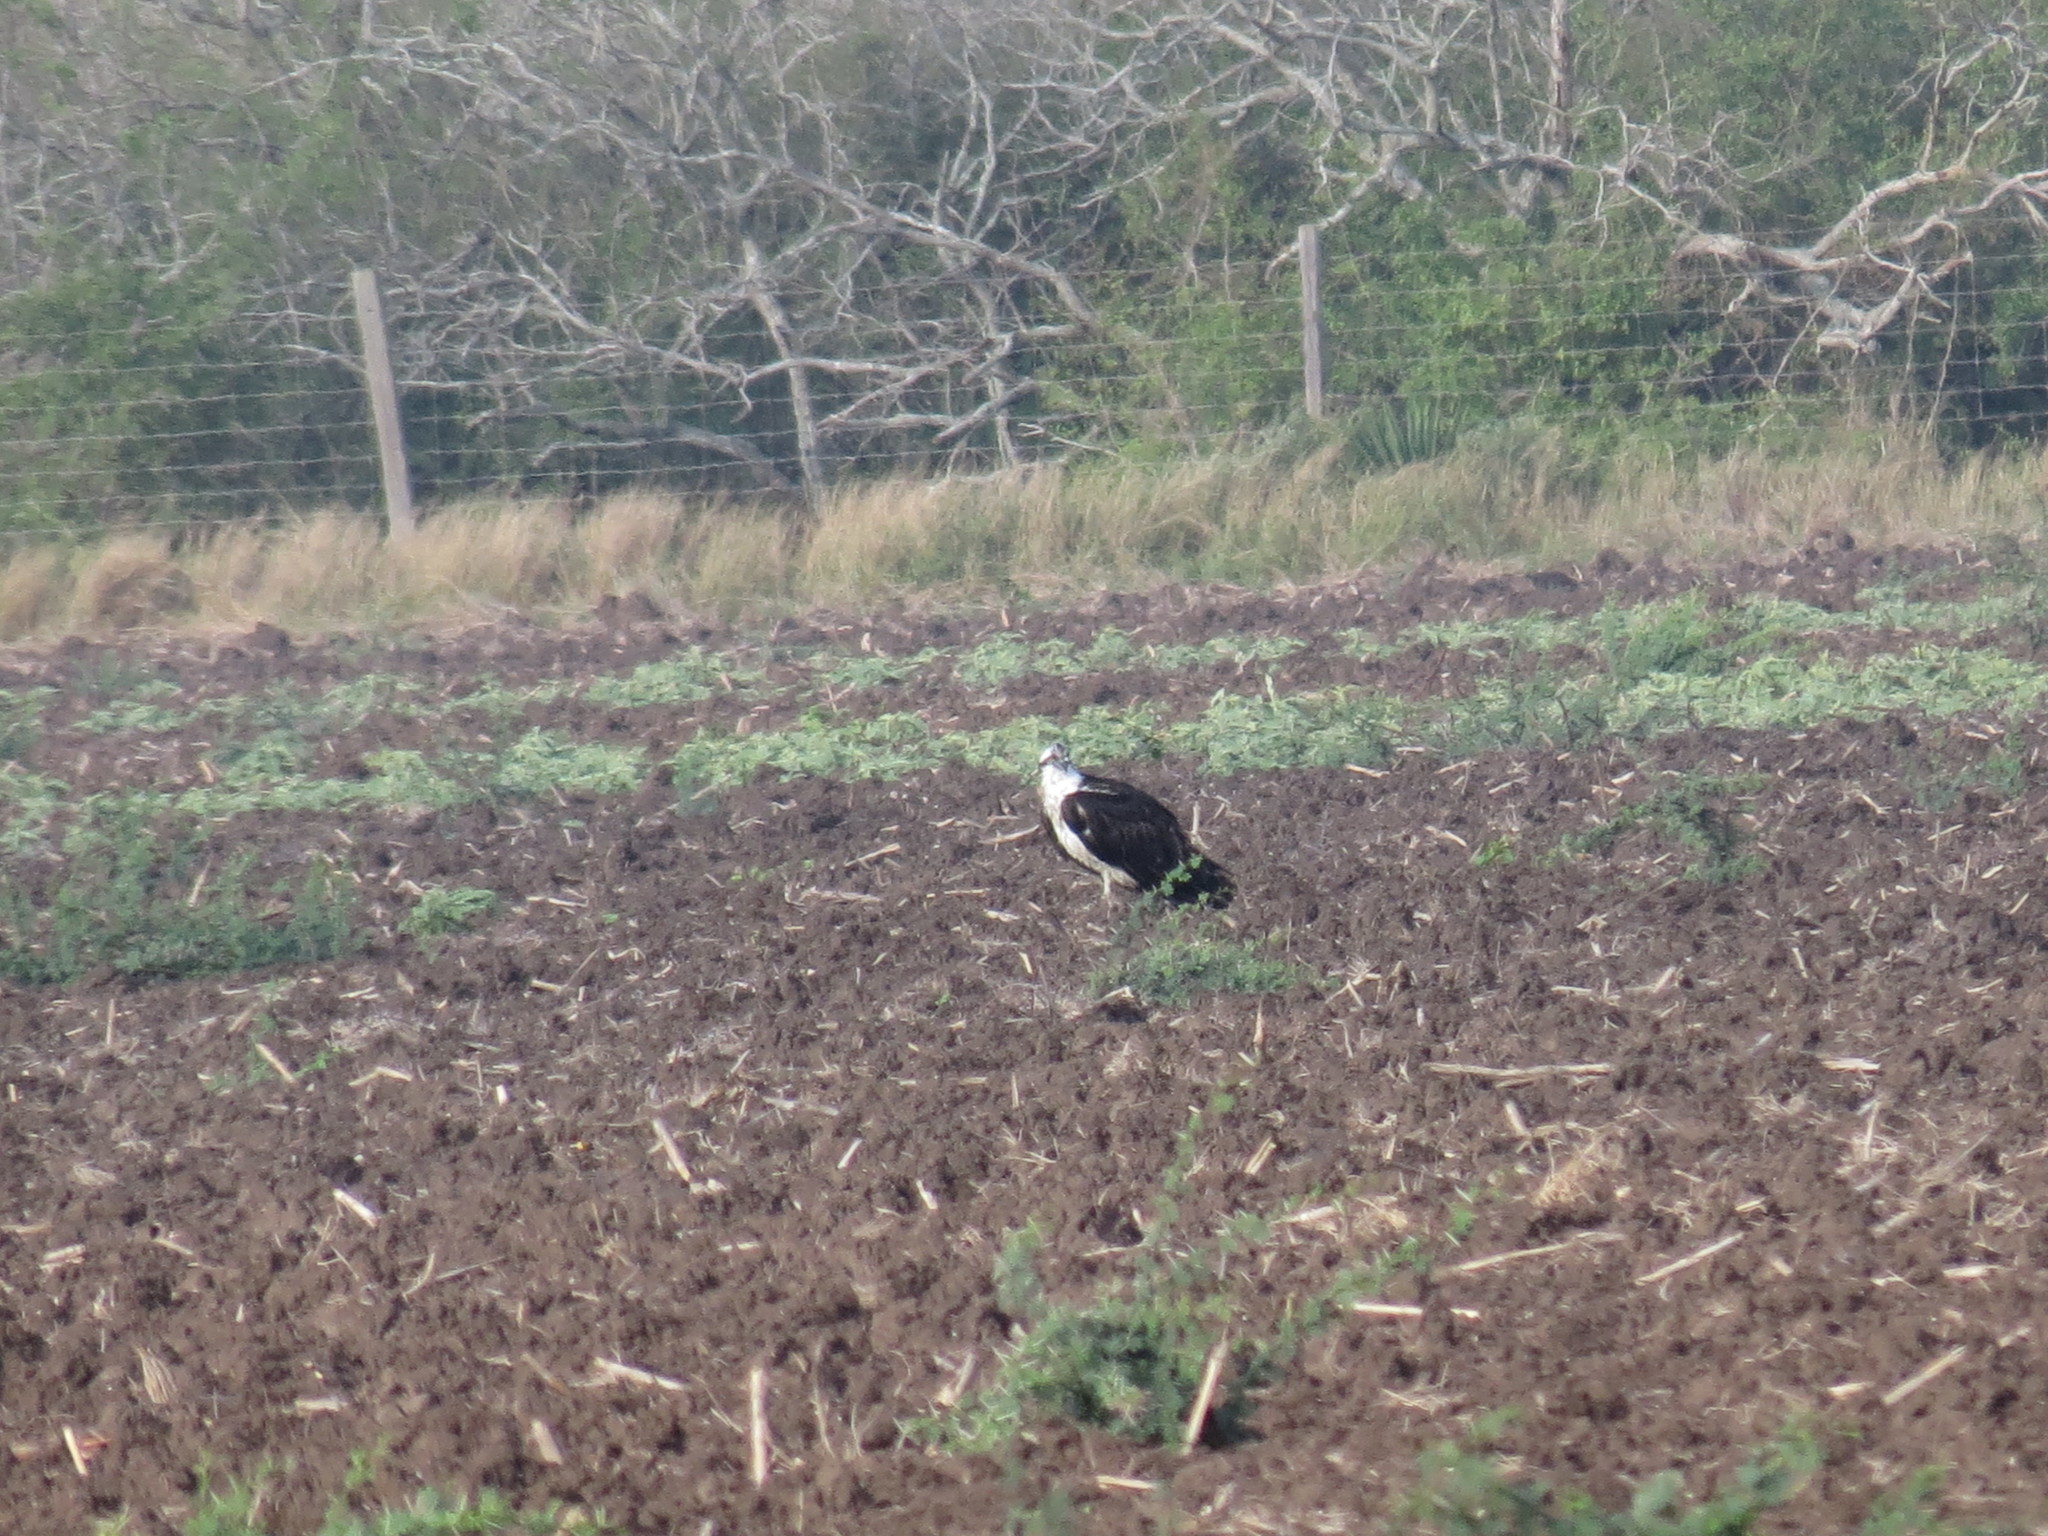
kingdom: Animalia
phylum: Chordata
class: Aves
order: Accipitriformes
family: Pandionidae
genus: Pandion
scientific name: Pandion haliaetus
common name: Osprey
